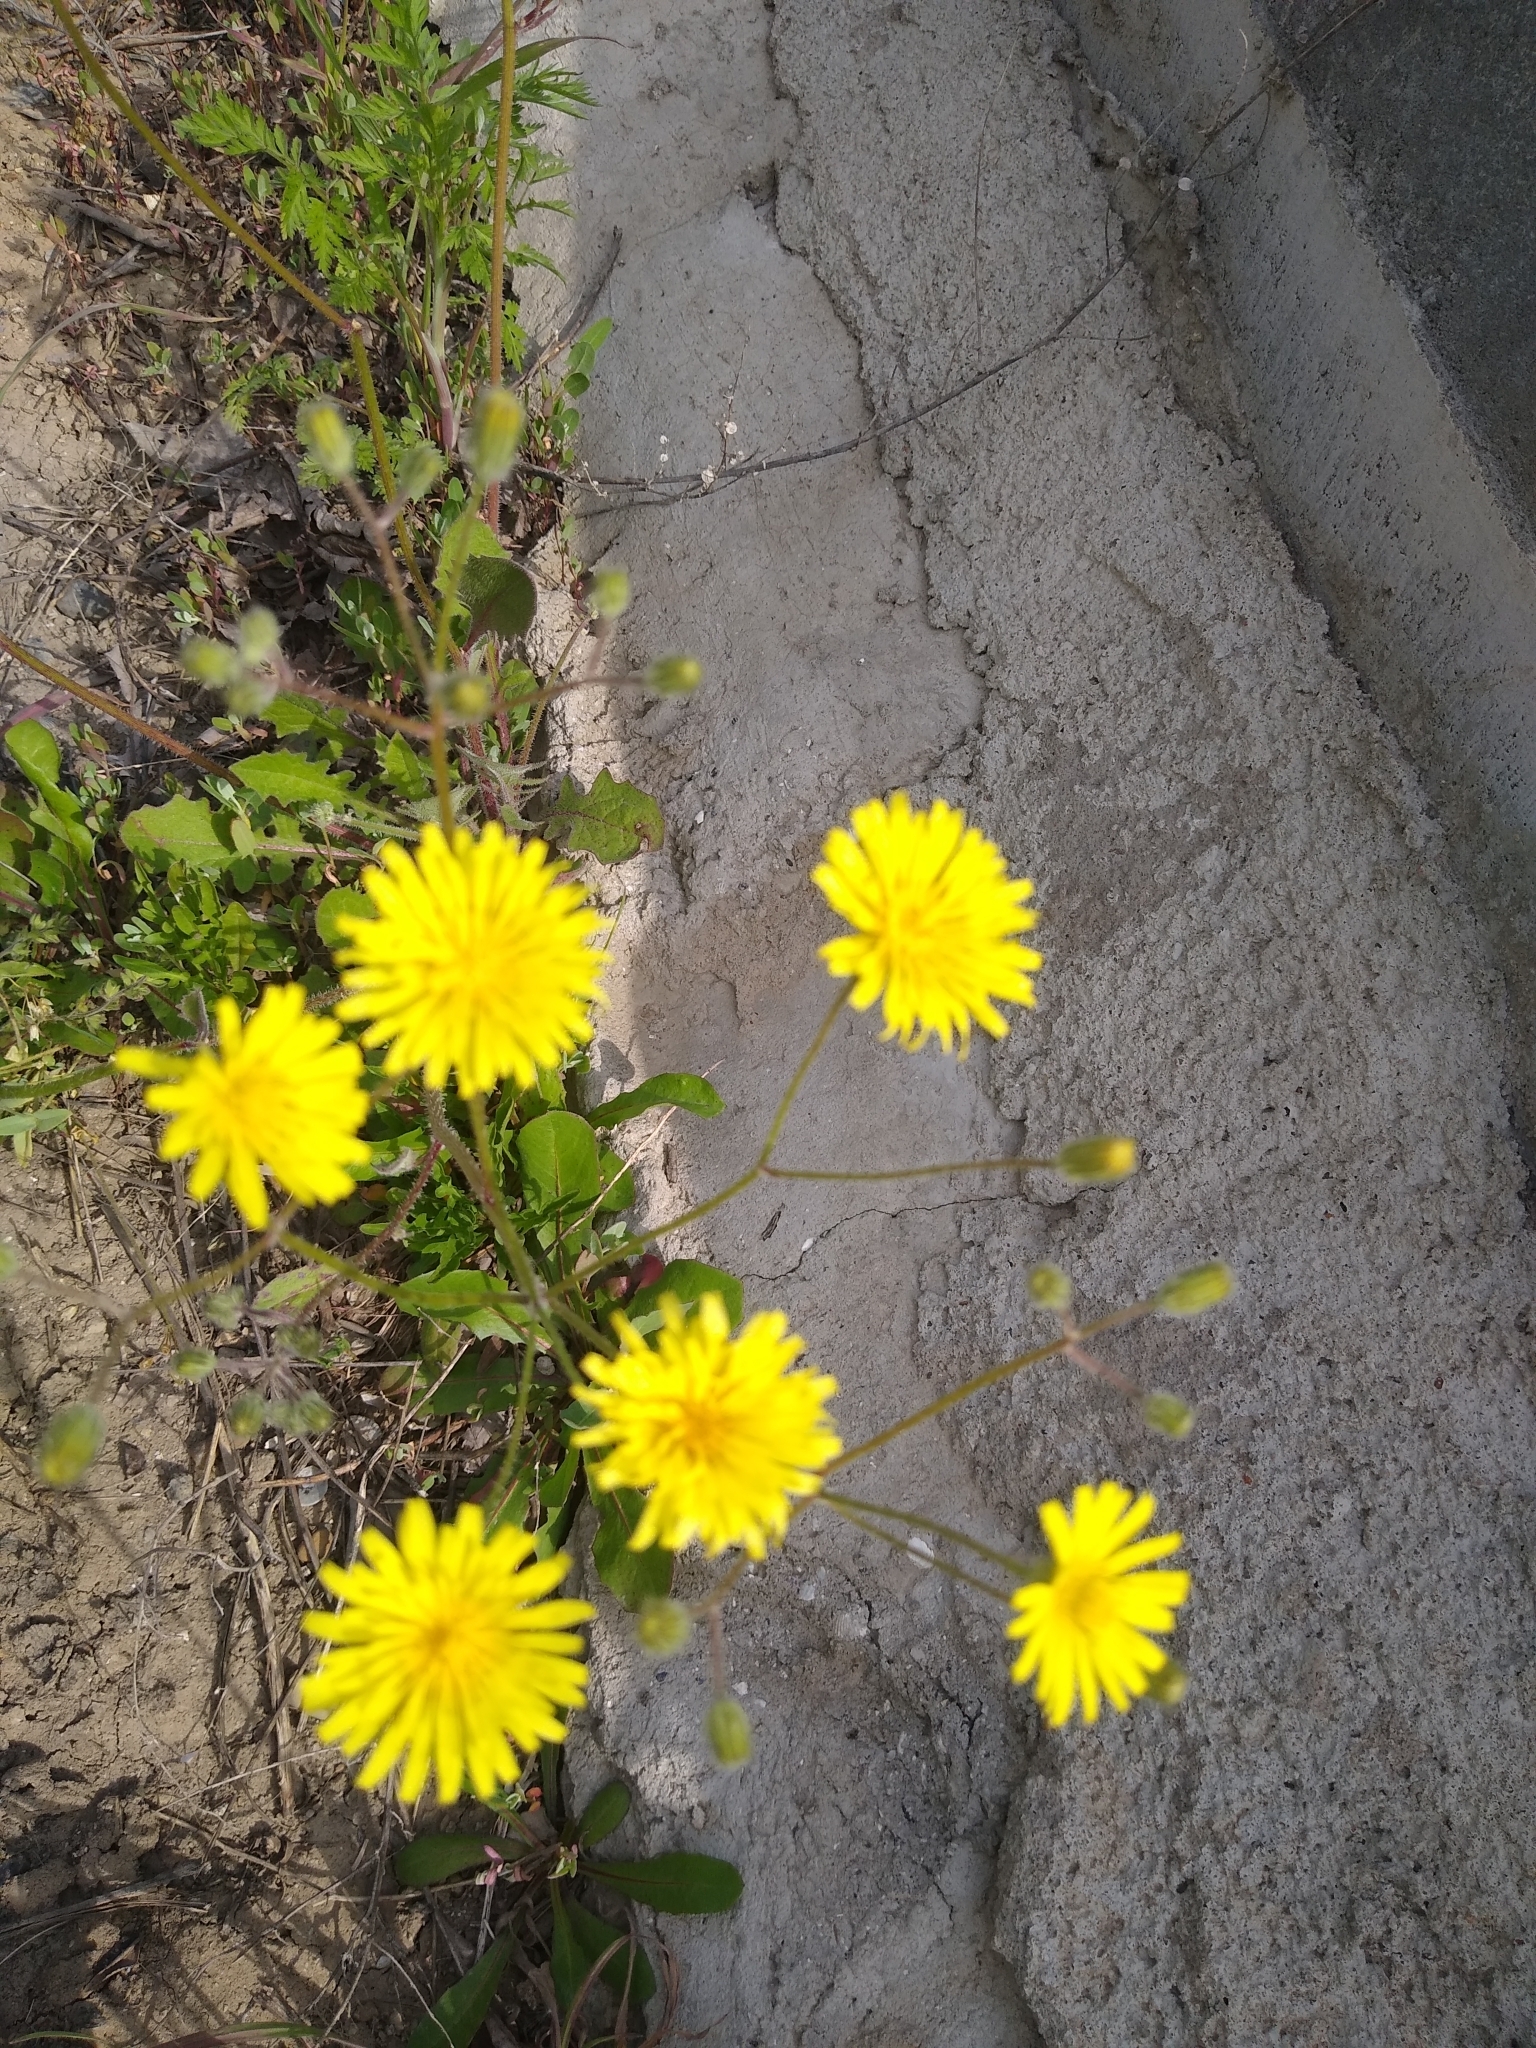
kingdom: Plantae
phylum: Tracheophyta
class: Magnoliopsida
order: Asterales
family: Asteraceae
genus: Crepis
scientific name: Crepis sancta
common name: Hawk's-beard
